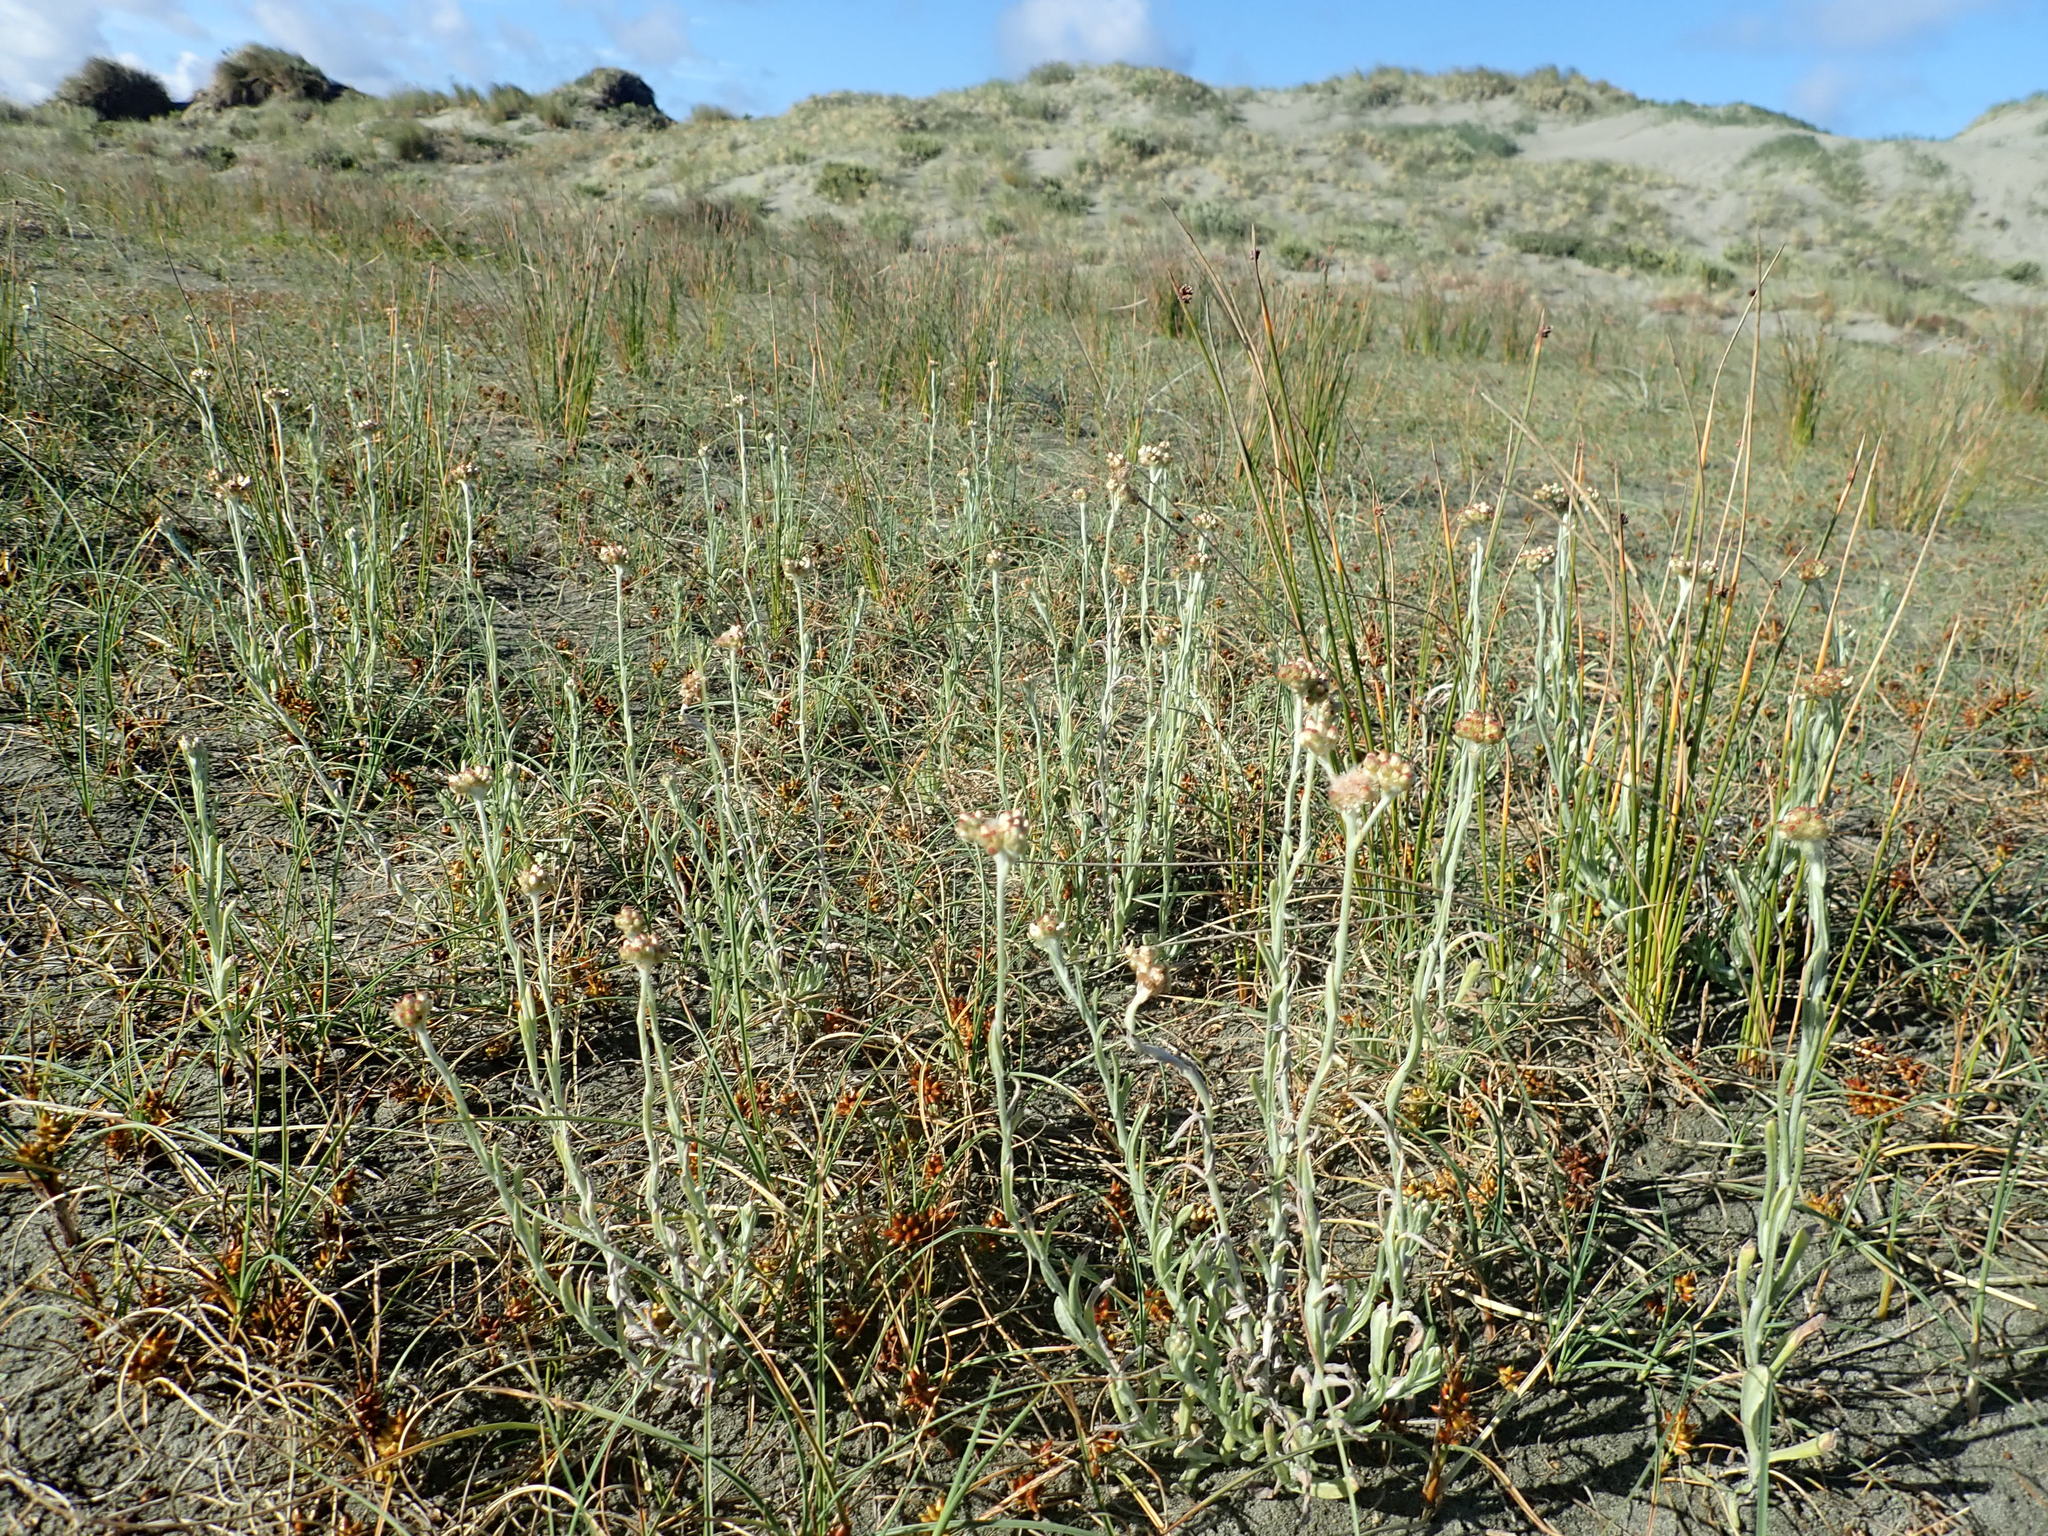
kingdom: Plantae
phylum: Tracheophyta
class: Magnoliopsida
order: Asterales
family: Asteraceae
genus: Helichrysum
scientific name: Helichrysum luteoalbum
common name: Daisy
